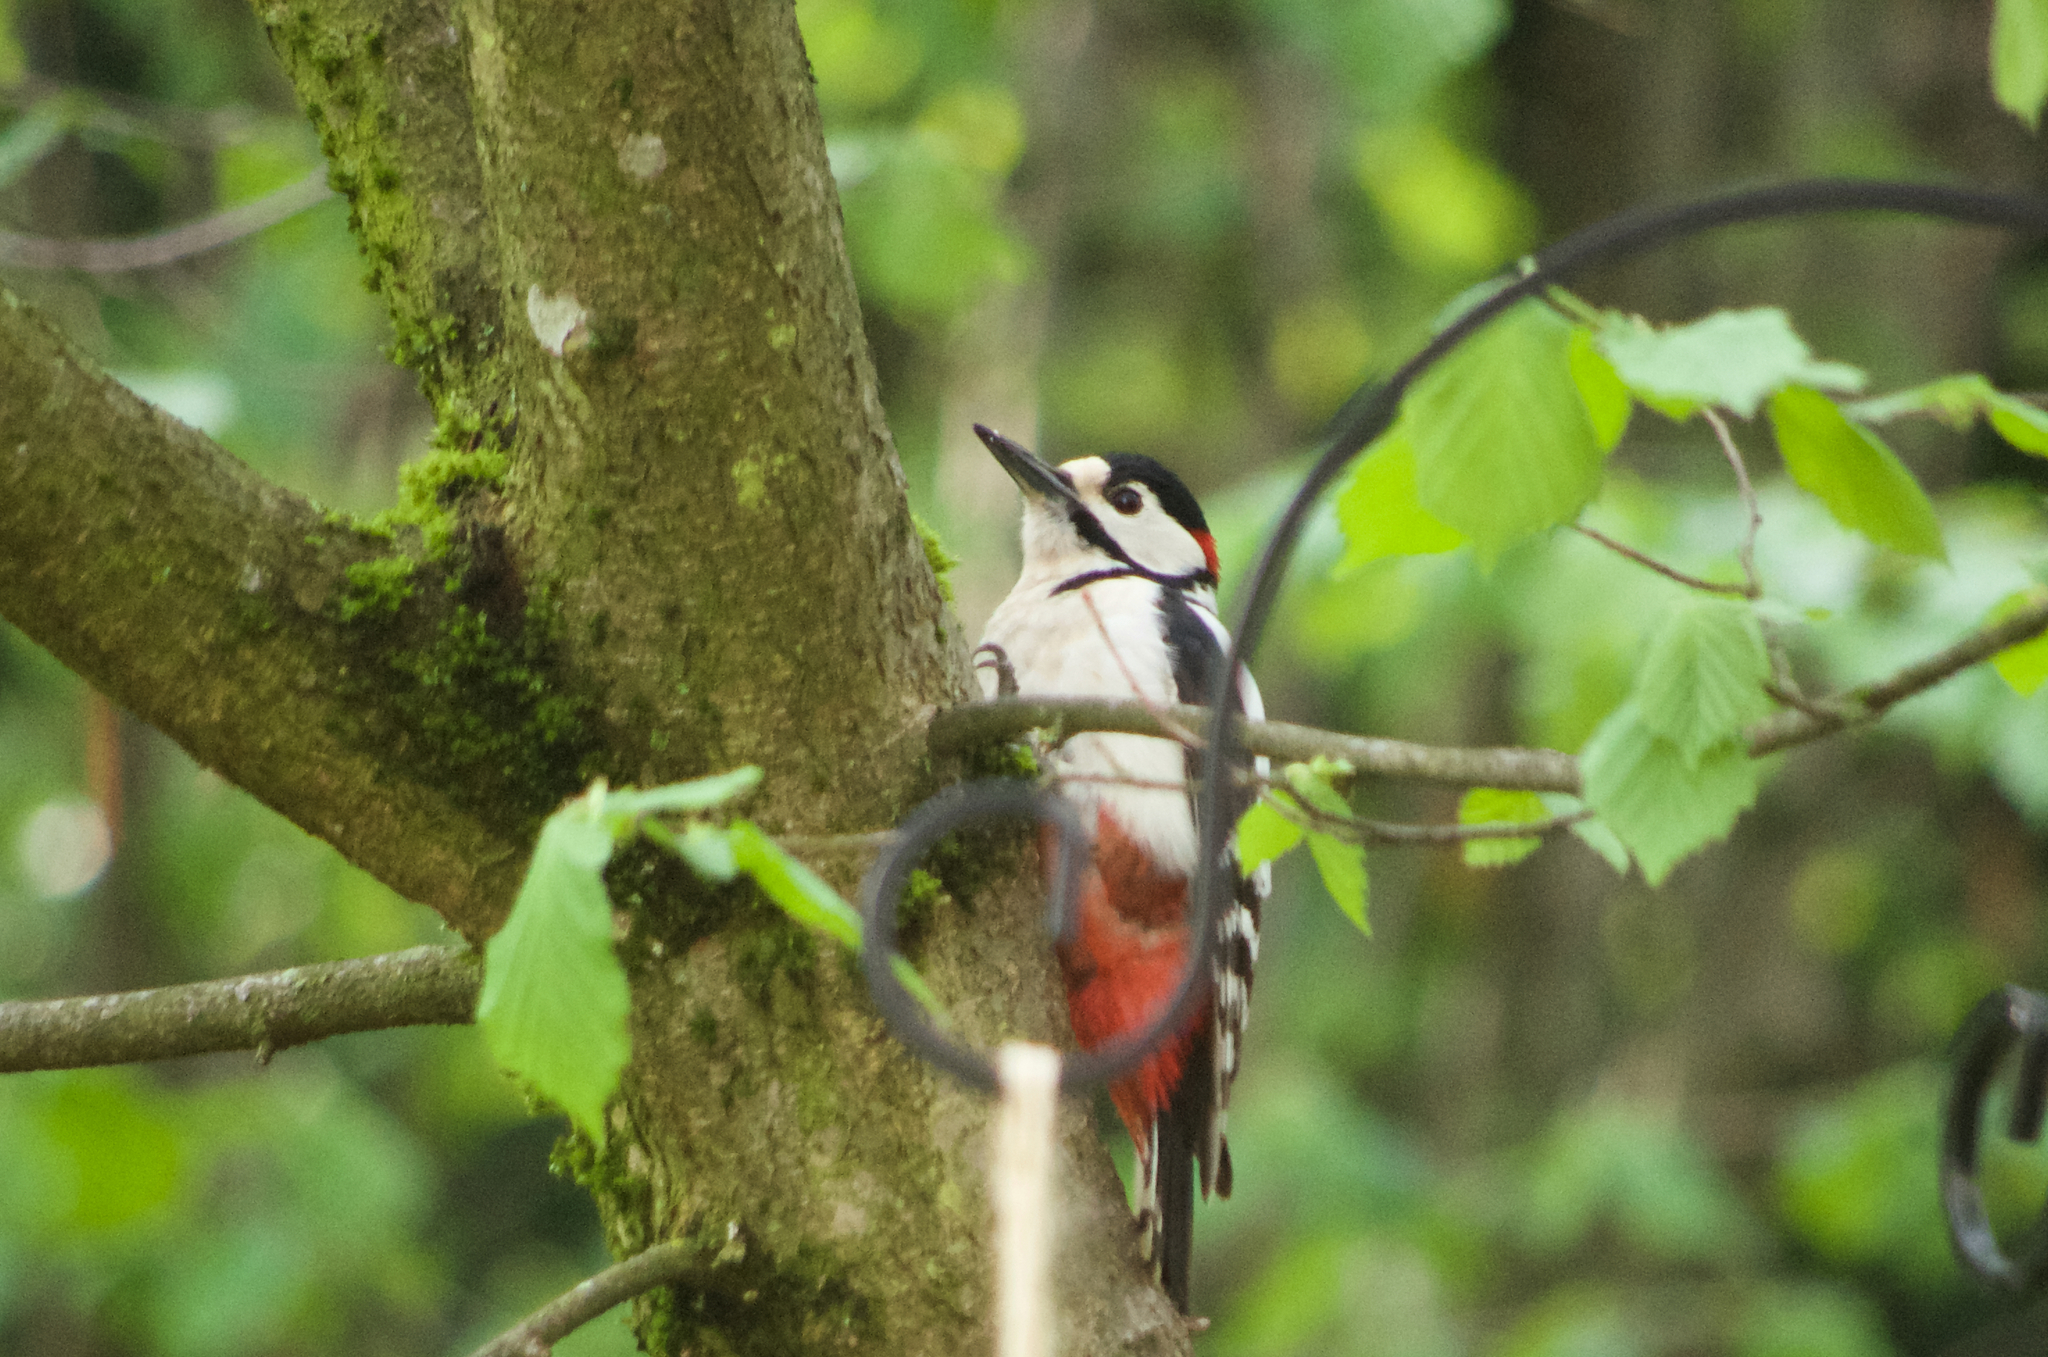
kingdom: Animalia
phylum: Chordata
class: Aves
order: Piciformes
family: Picidae
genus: Dendrocopos
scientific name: Dendrocopos major
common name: Great spotted woodpecker
